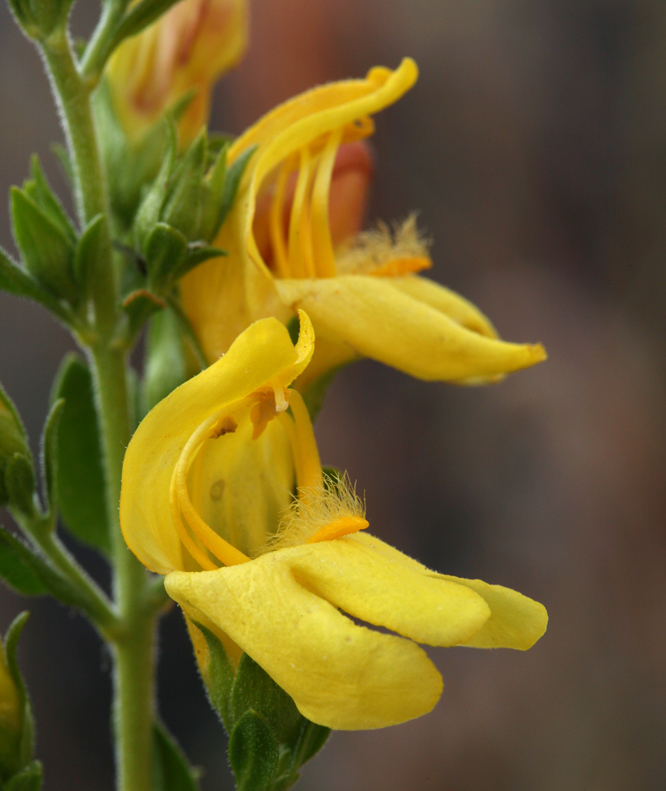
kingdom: Plantae
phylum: Tracheophyta
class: Magnoliopsida
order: Lamiales
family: Plantaginaceae
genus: Keckiella
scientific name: Keckiella antirrhinoides
